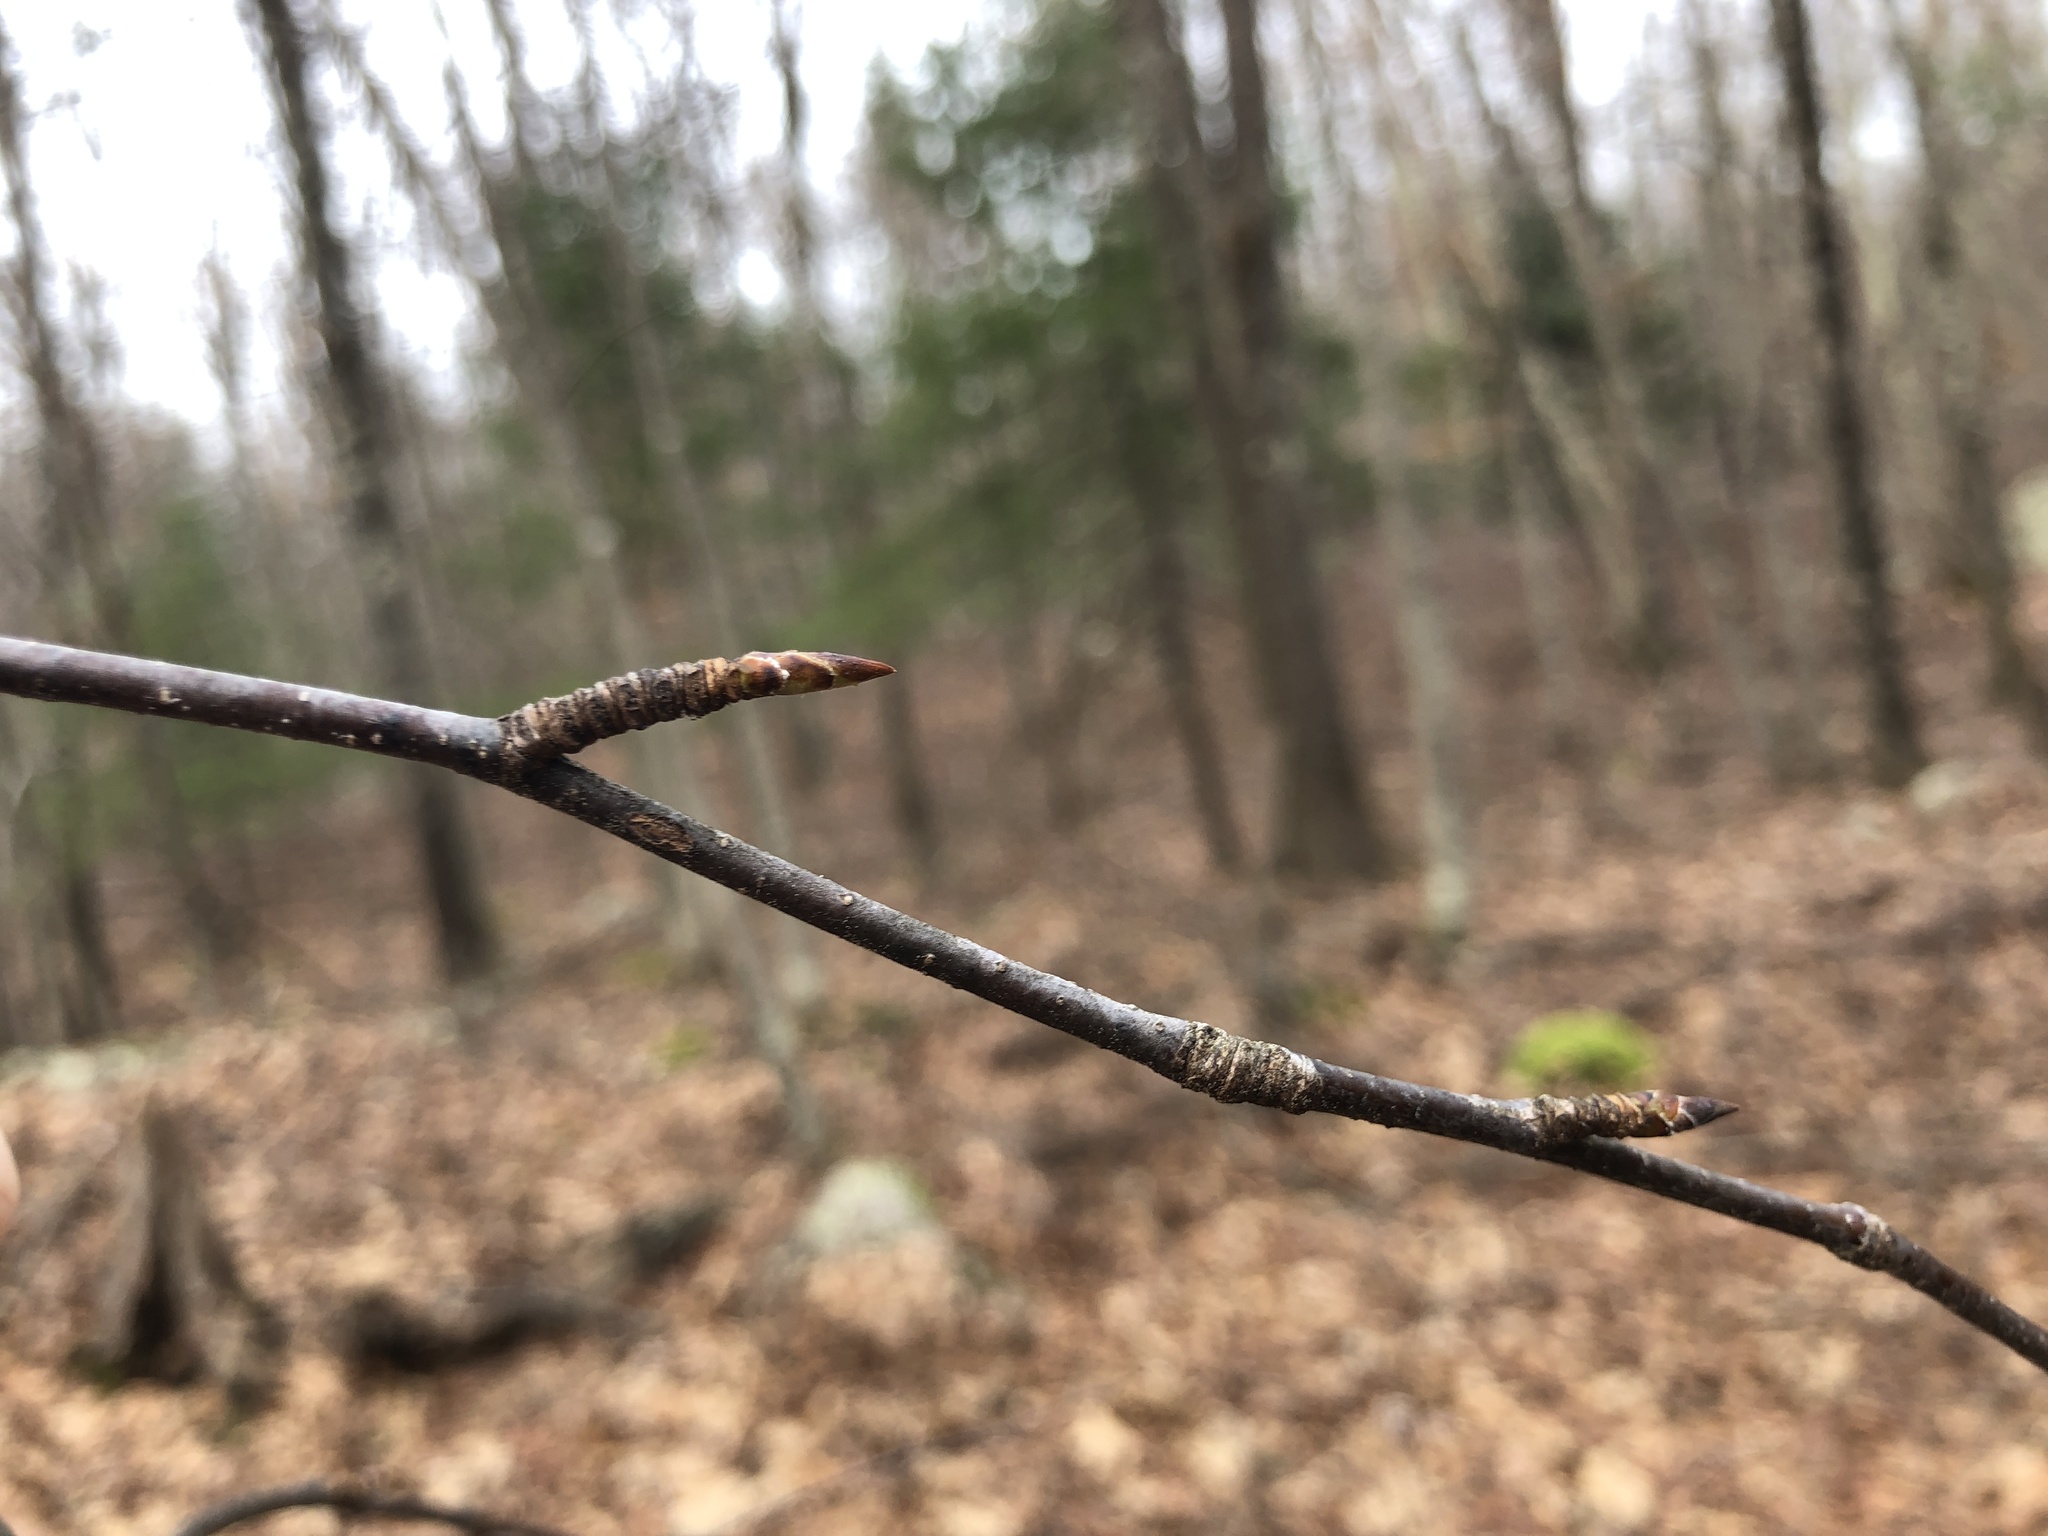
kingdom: Plantae
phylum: Tracheophyta
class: Magnoliopsida
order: Fagales
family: Betulaceae
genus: Betula
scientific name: Betula lenta
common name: Black birch
